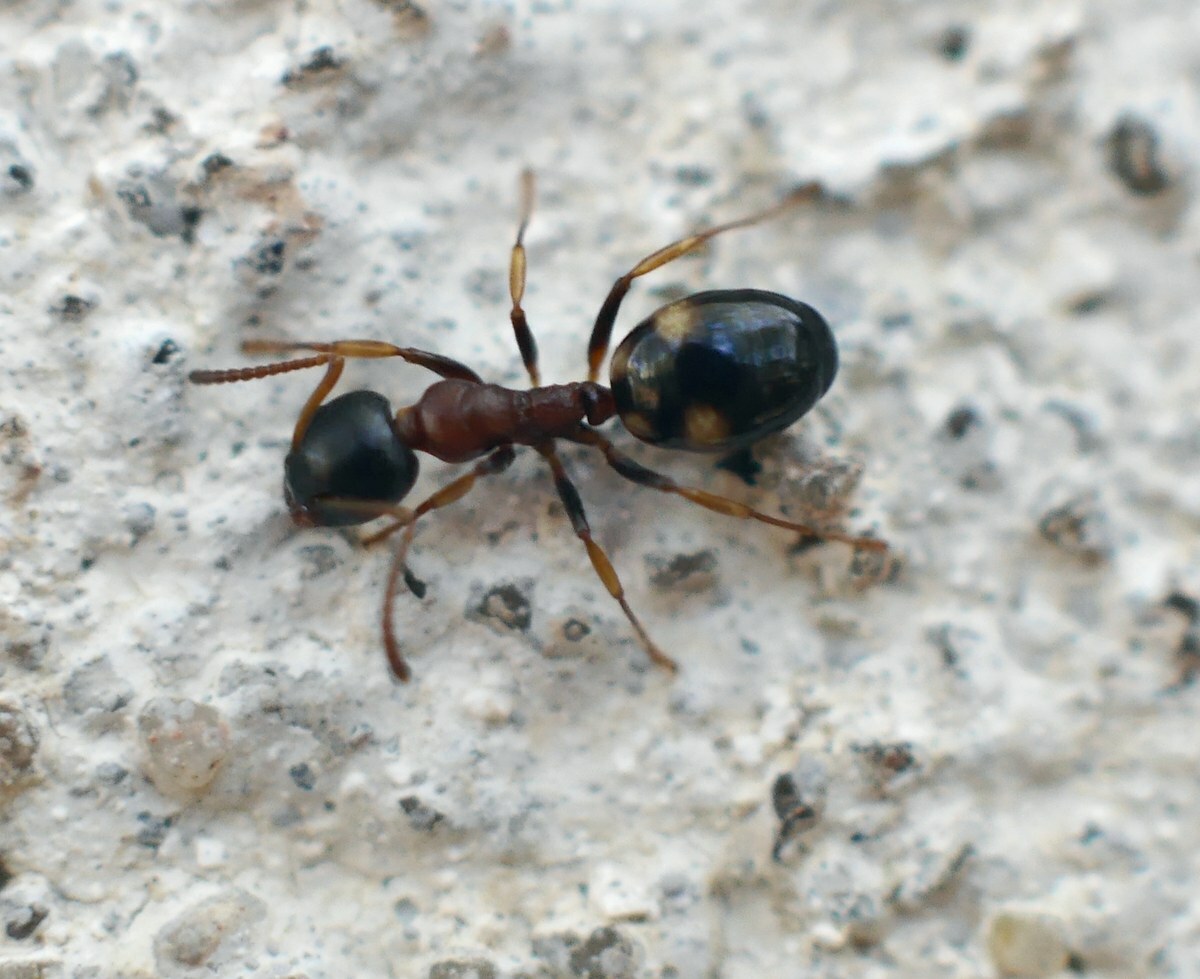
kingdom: Animalia
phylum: Arthropoda
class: Insecta
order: Hymenoptera
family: Formicidae
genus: Dolichoderus
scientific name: Dolichoderus quadripunctatus
